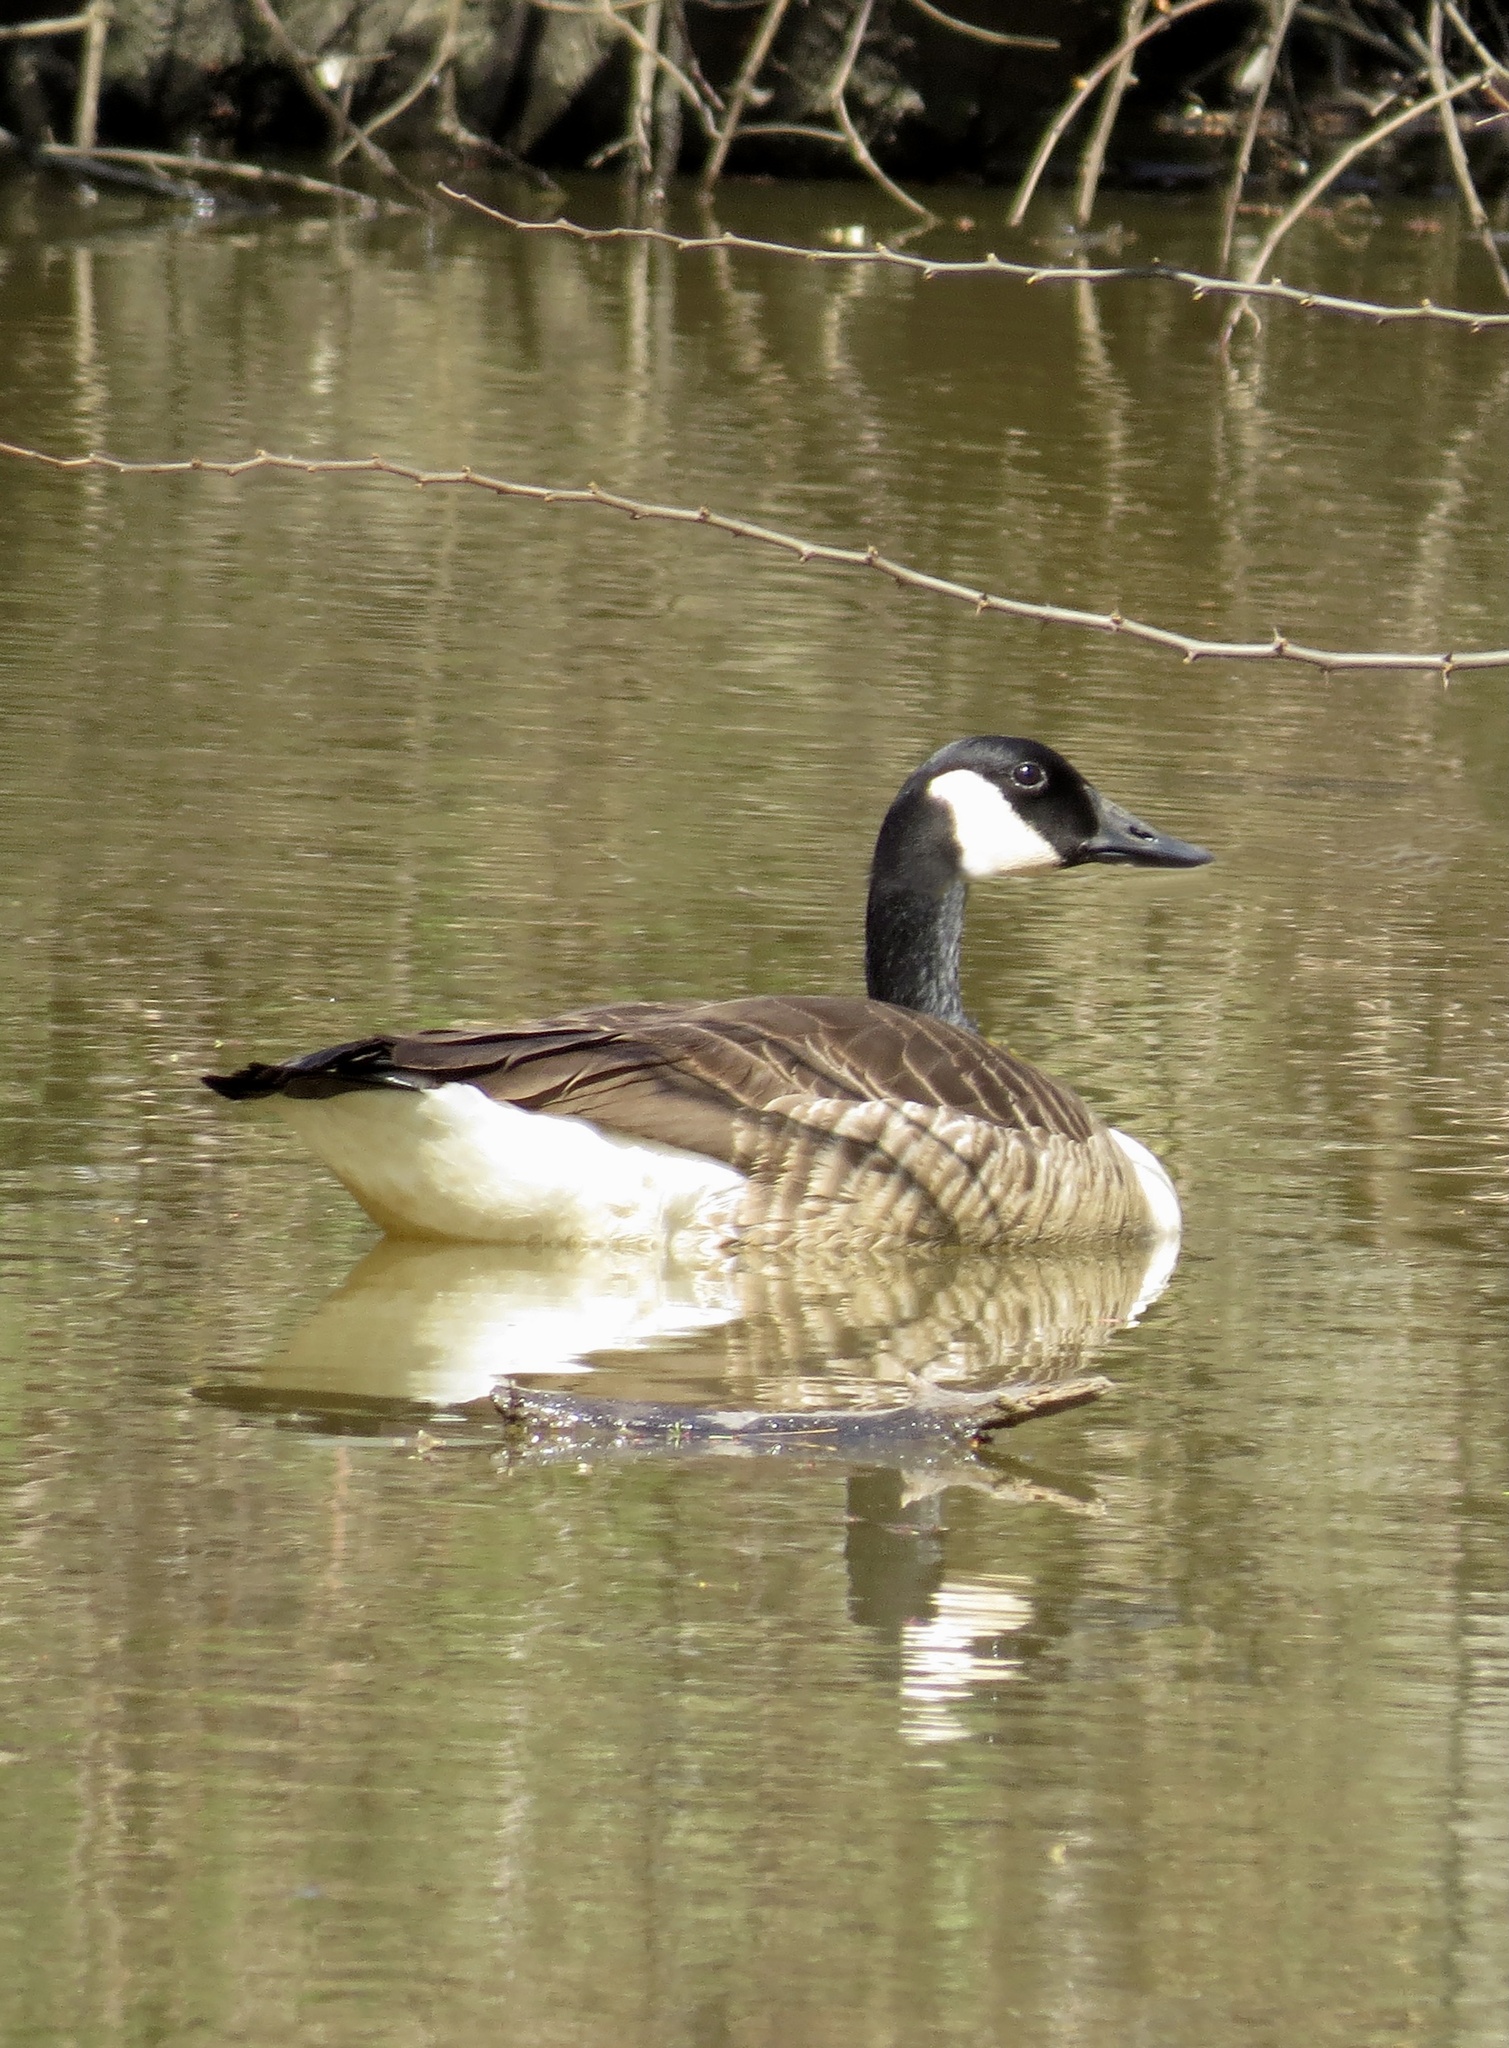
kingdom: Animalia
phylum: Chordata
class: Aves
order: Anseriformes
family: Anatidae
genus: Branta
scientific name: Branta canadensis
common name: Canada goose
